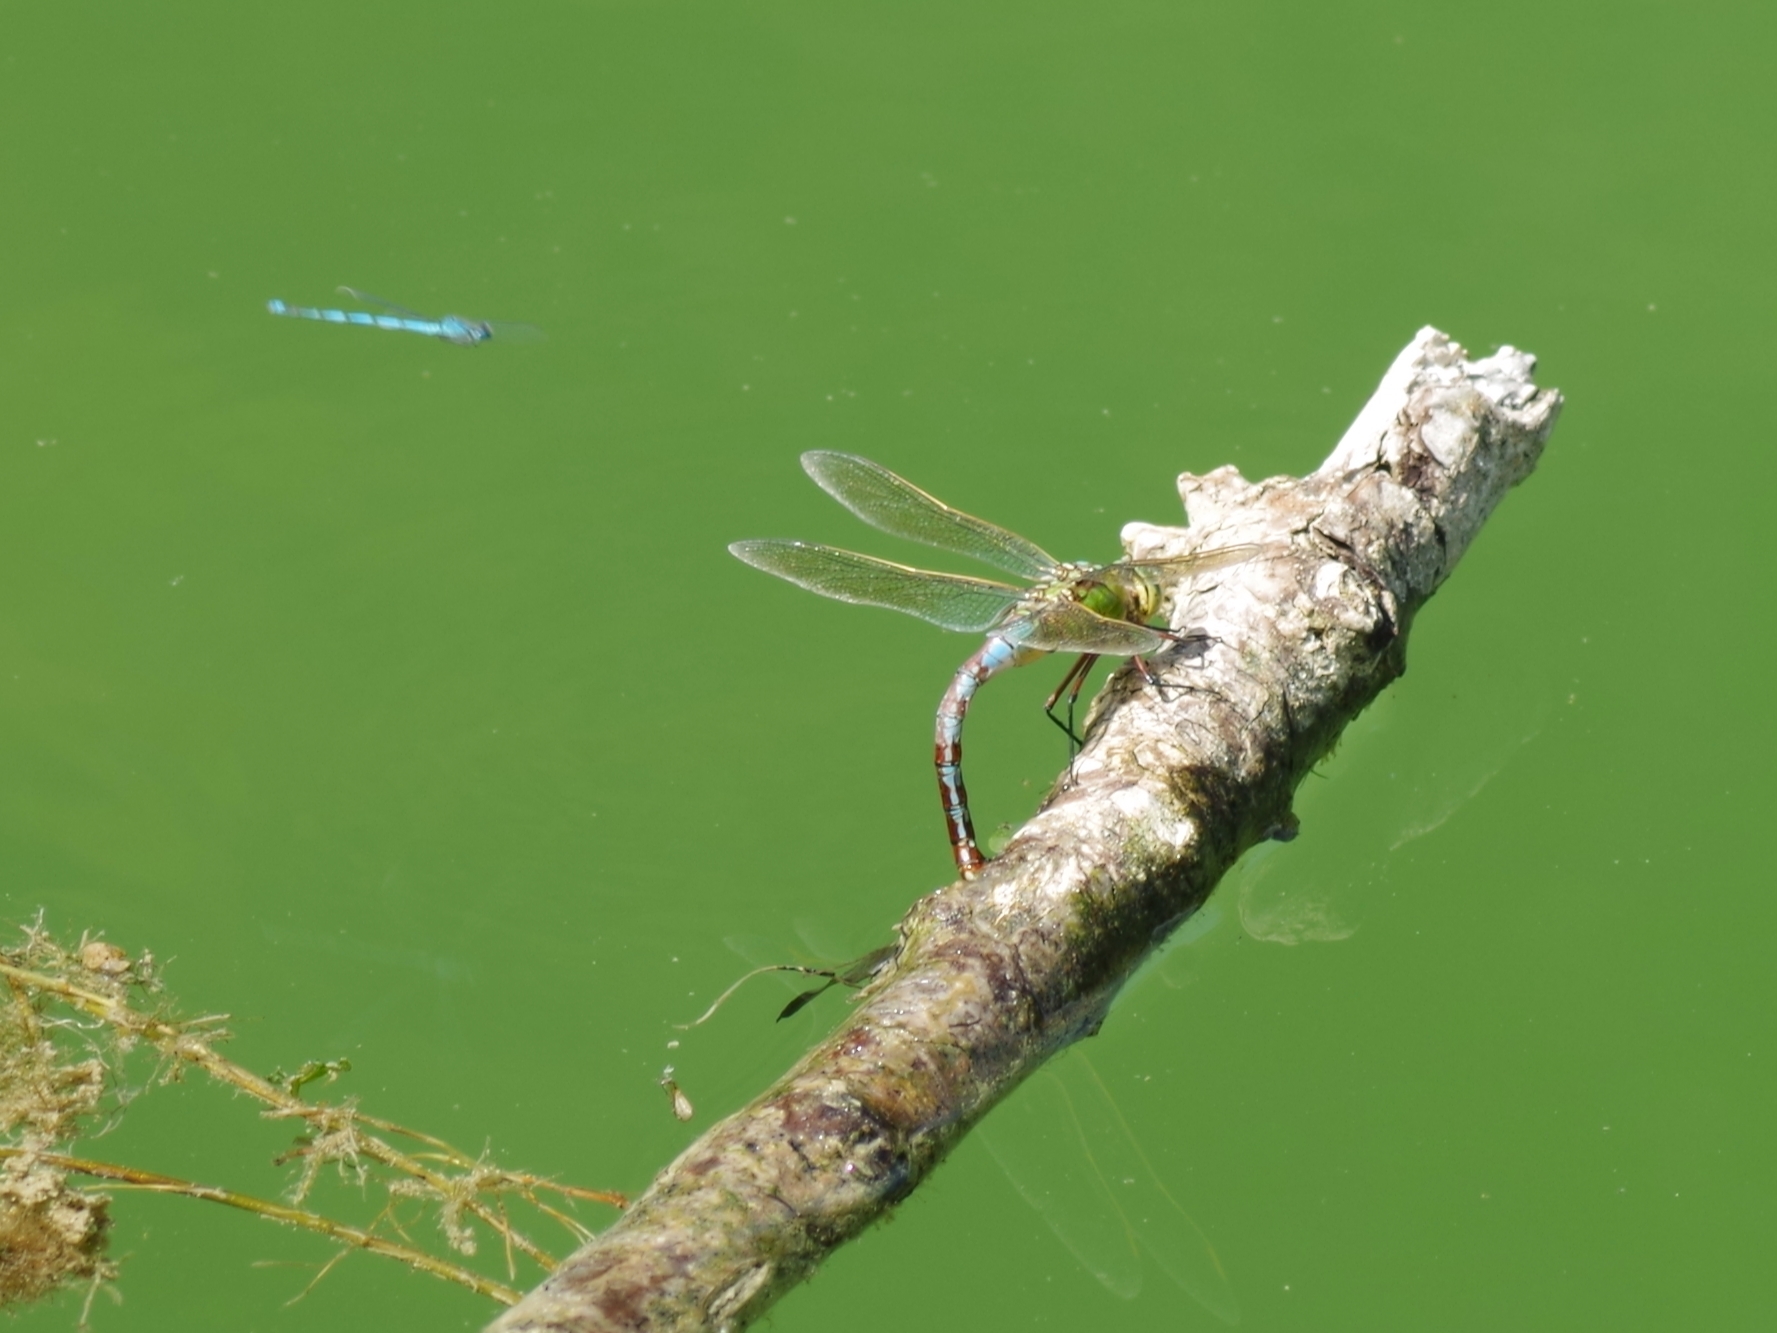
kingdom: Animalia
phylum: Arthropoda
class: Insecta
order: Odonata
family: Aeshnidae
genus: Anax
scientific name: Anax imperator
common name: Emperor dragonfly
